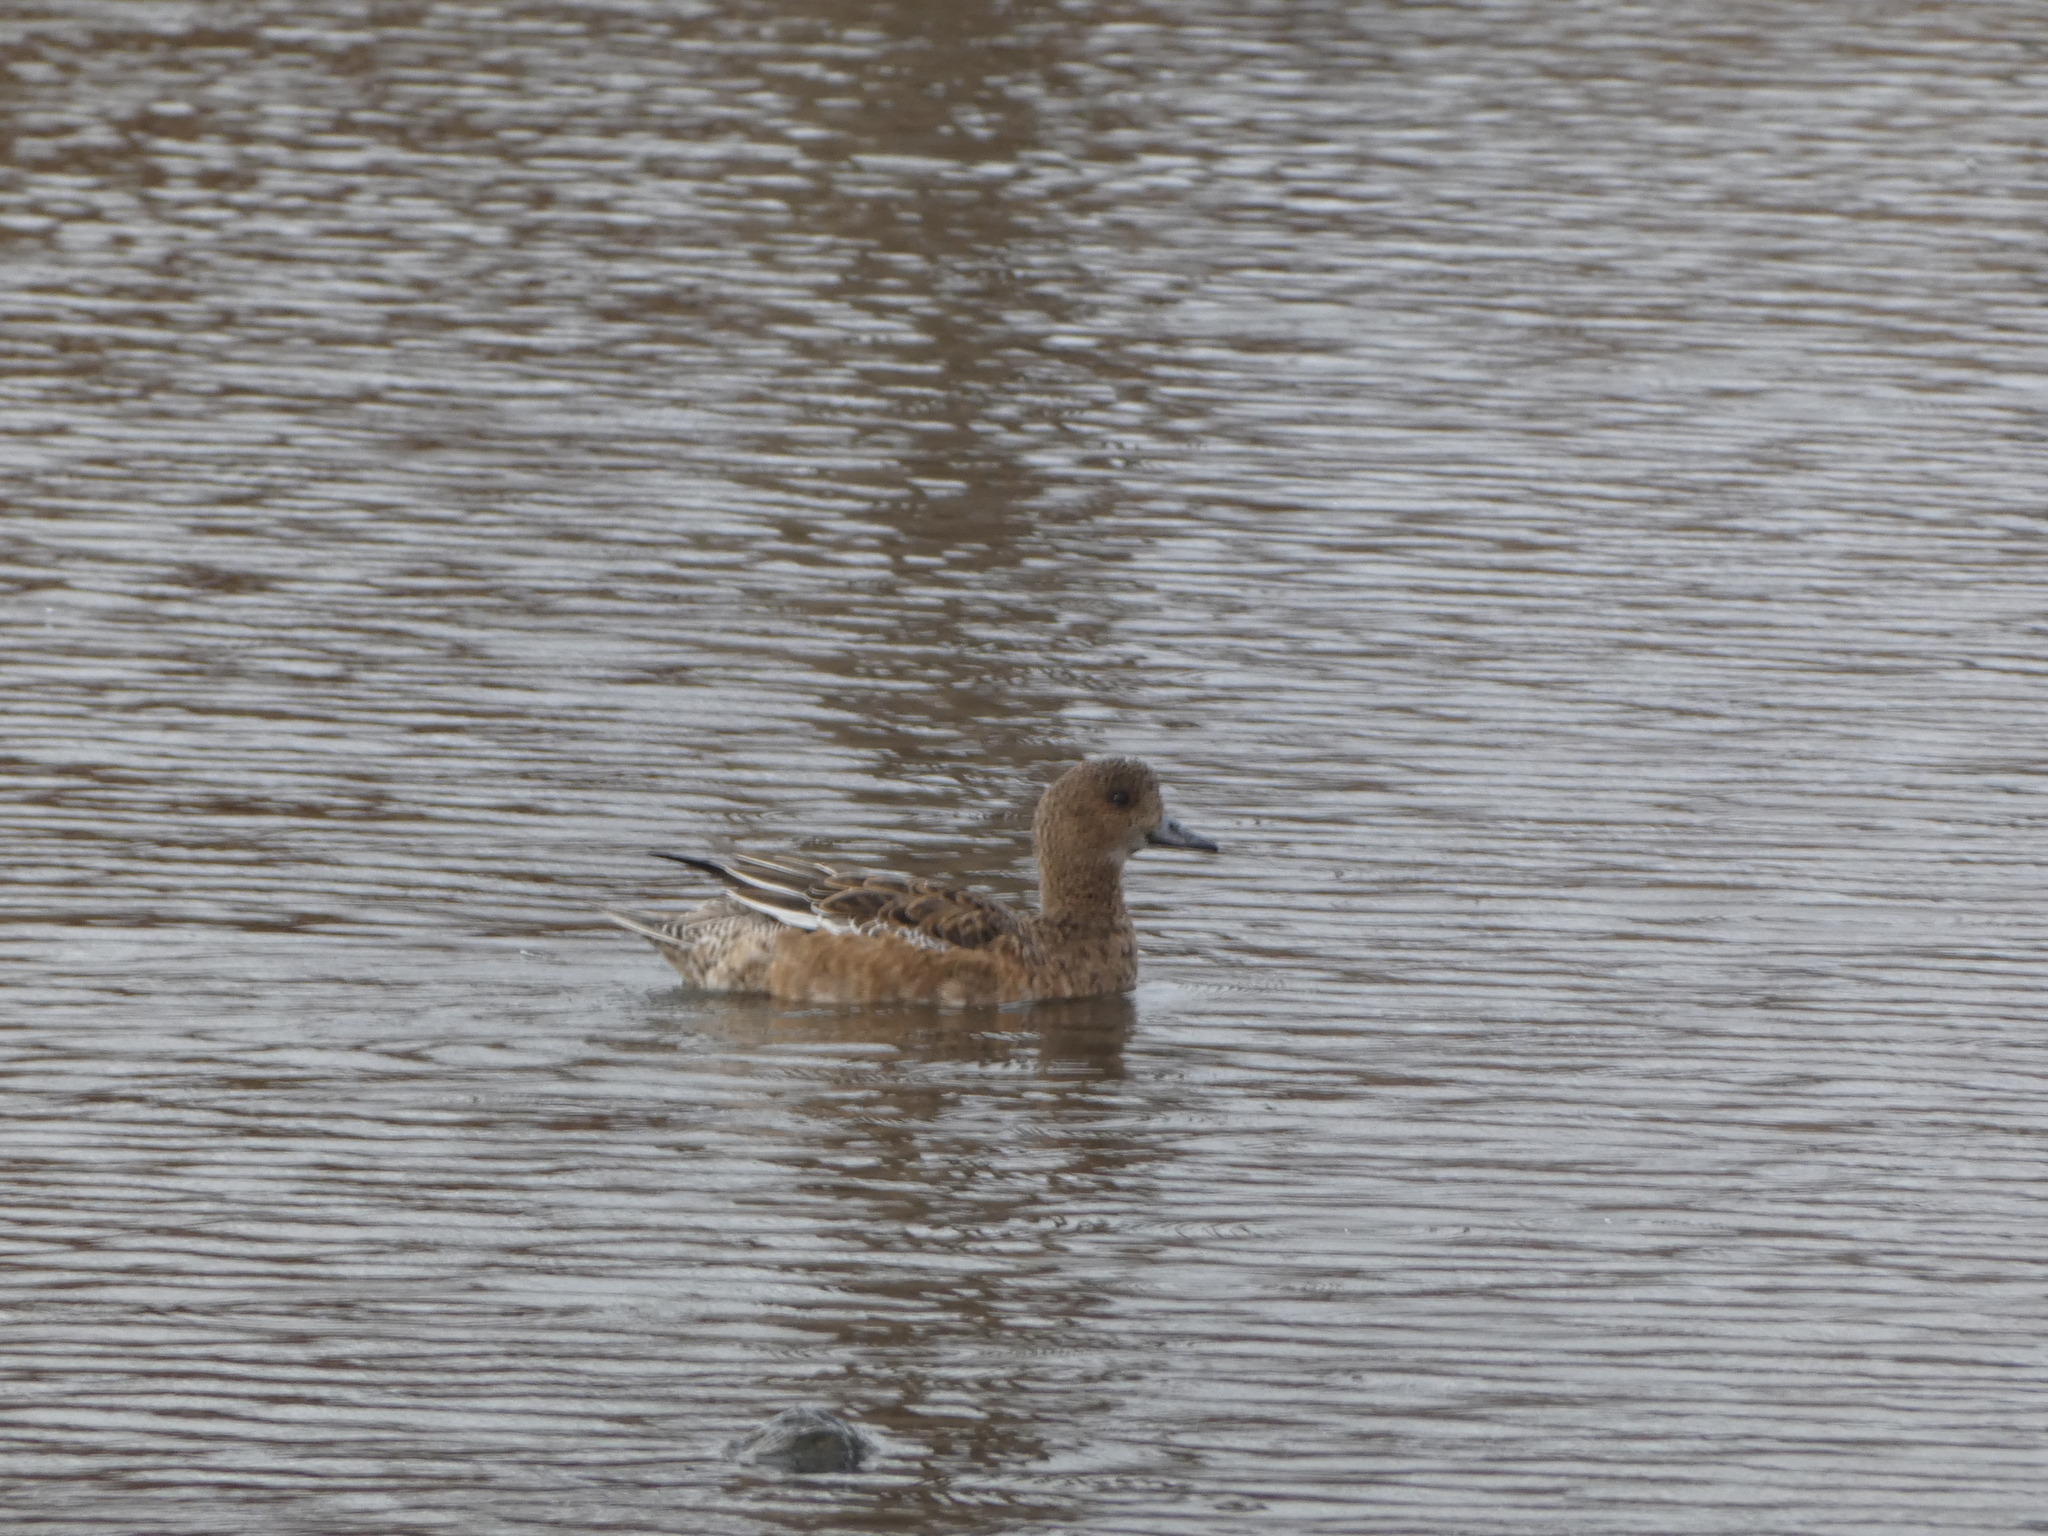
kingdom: Animalia
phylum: Chordata
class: Aves
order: Anseriformes
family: Anatidae
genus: Mareca
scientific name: Mareca penelope
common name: Eurasian wigeon
